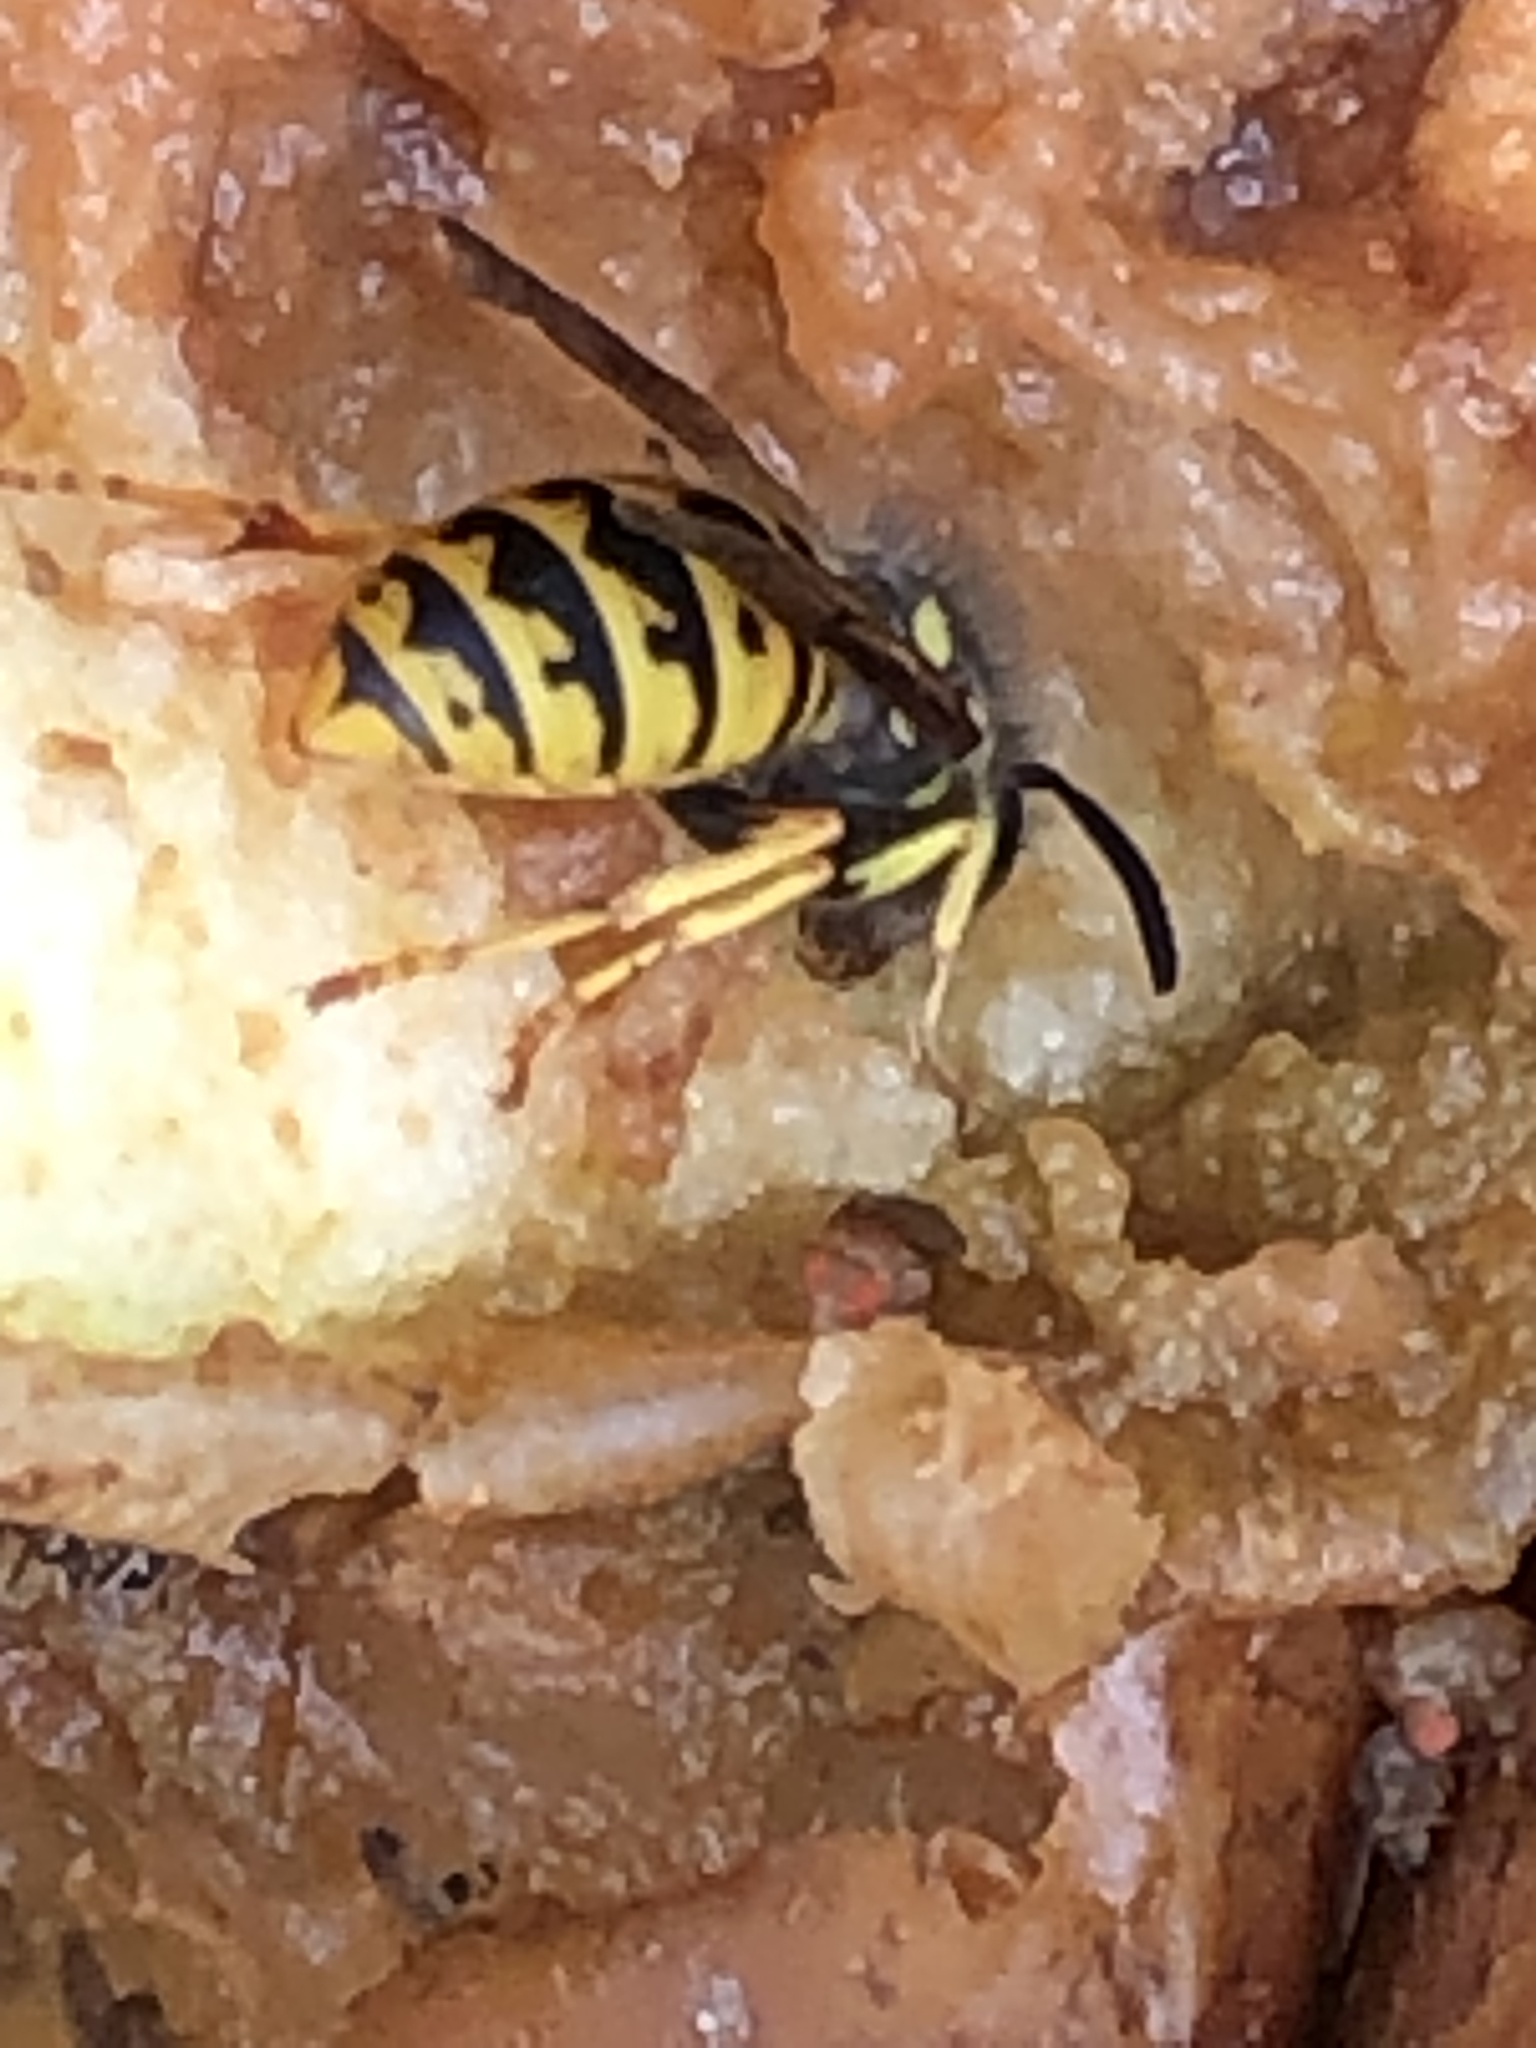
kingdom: Animalia
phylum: Arthropoda
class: Insecta
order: Hymenoptera
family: Vespidae
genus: Vespula
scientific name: Vespula germanica
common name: German wasp
